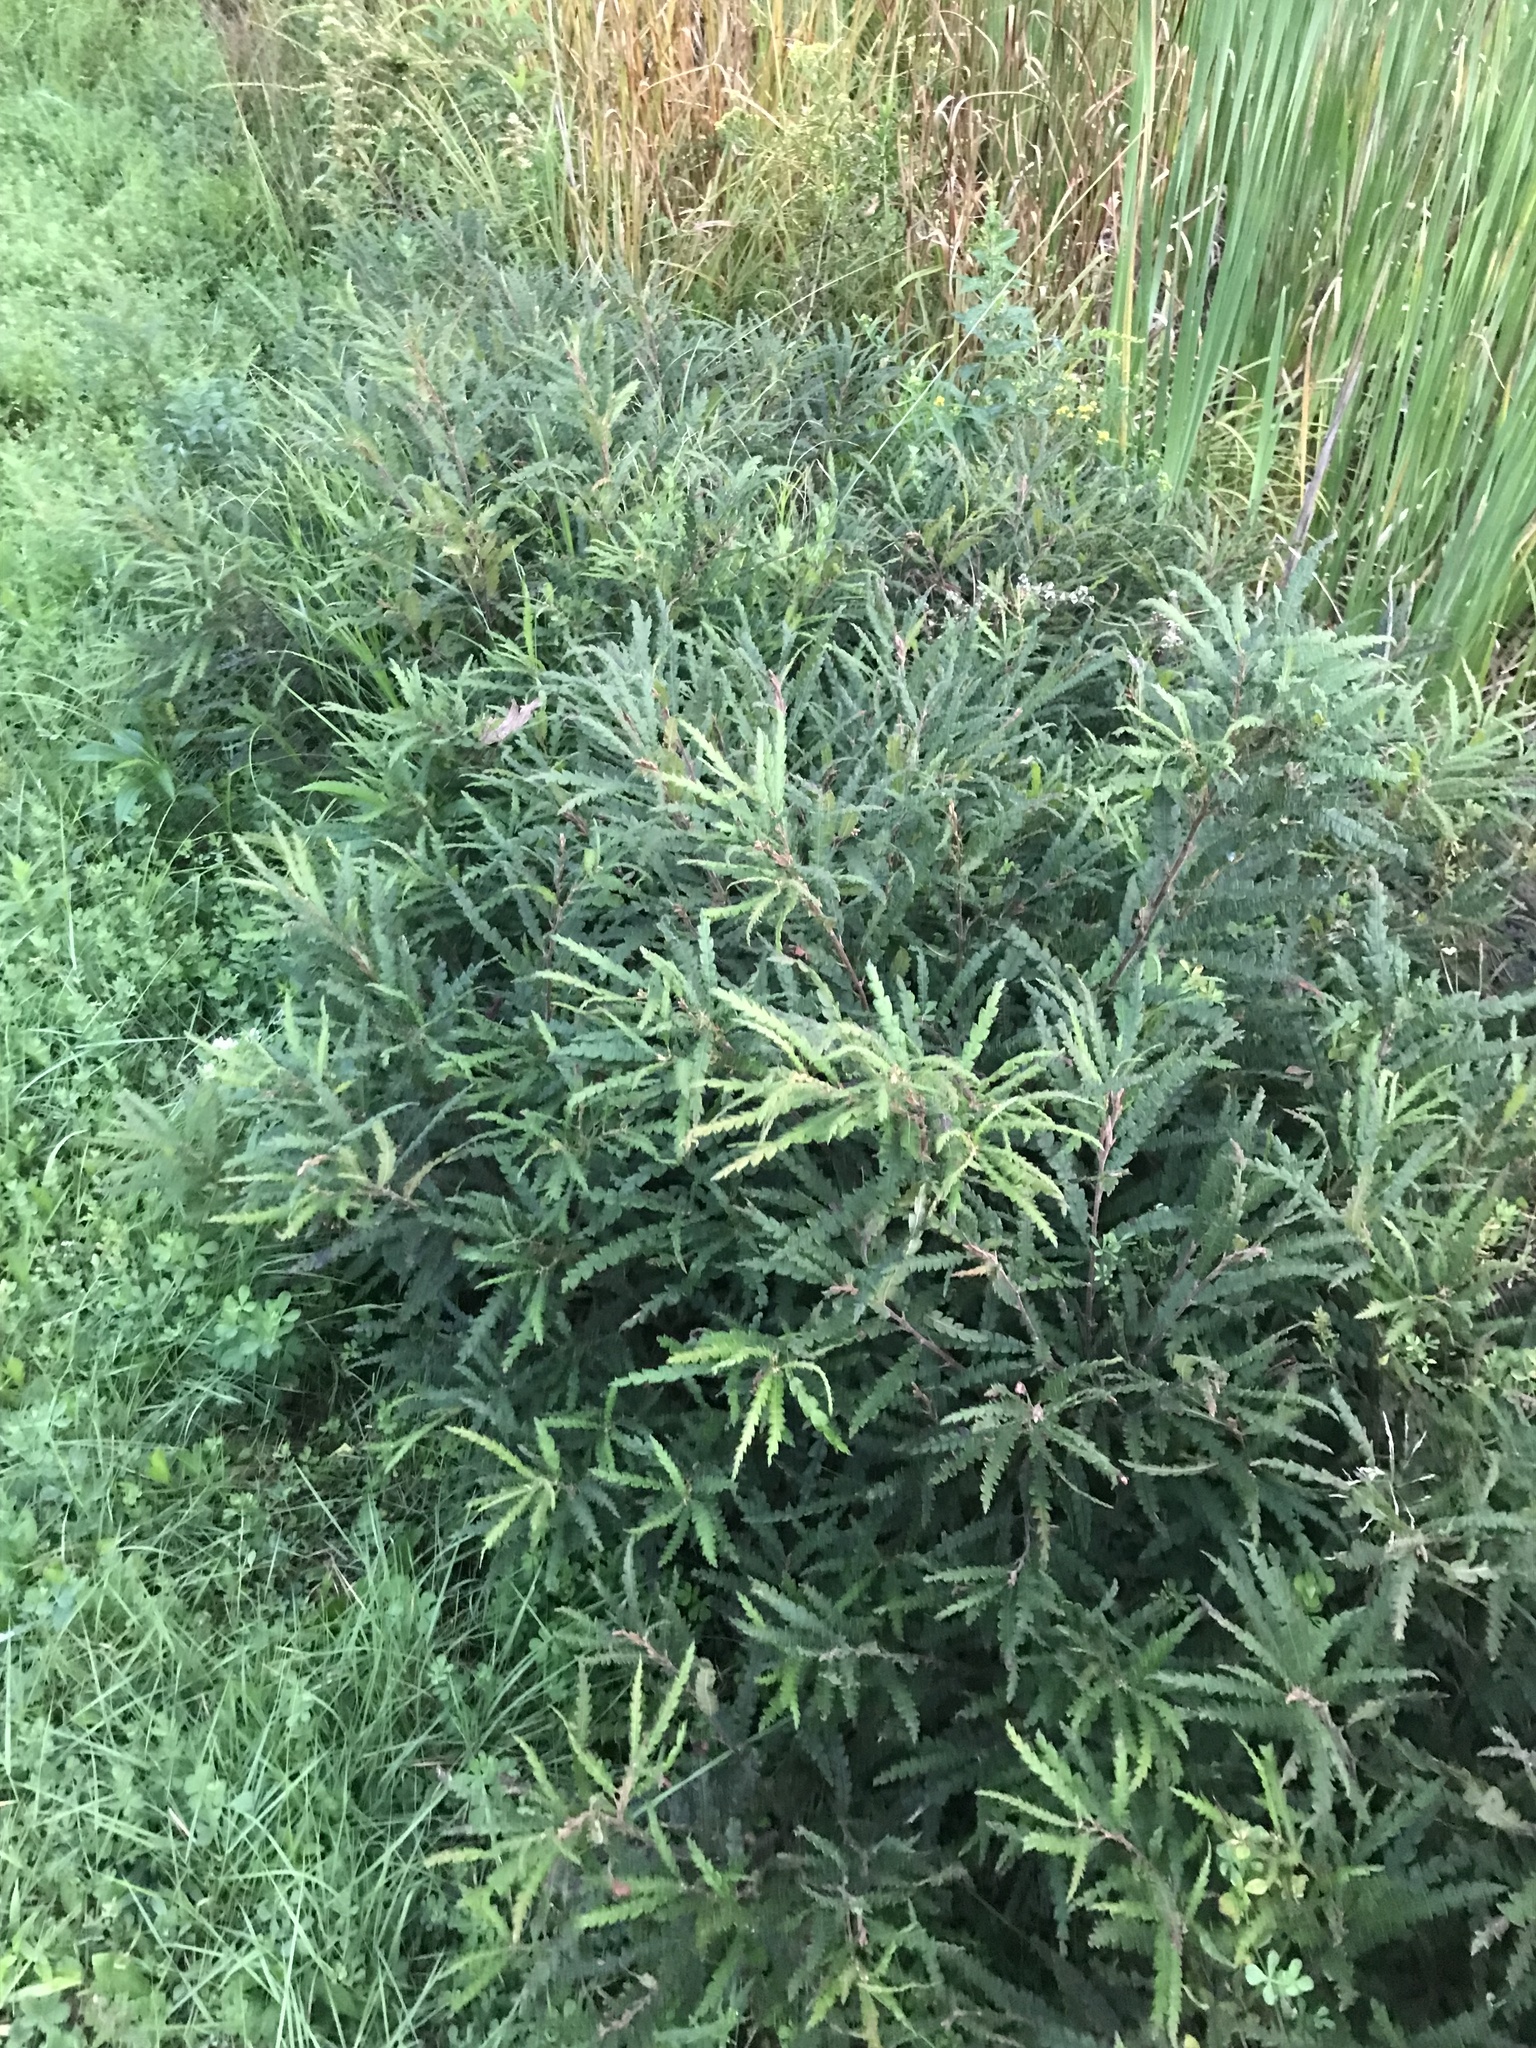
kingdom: Plantae
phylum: Tracheophyta
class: Magnoliopsida
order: Fagales
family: Myricaceae
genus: Comptonia
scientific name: Comptonia peregrina
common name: Sweet-fern
